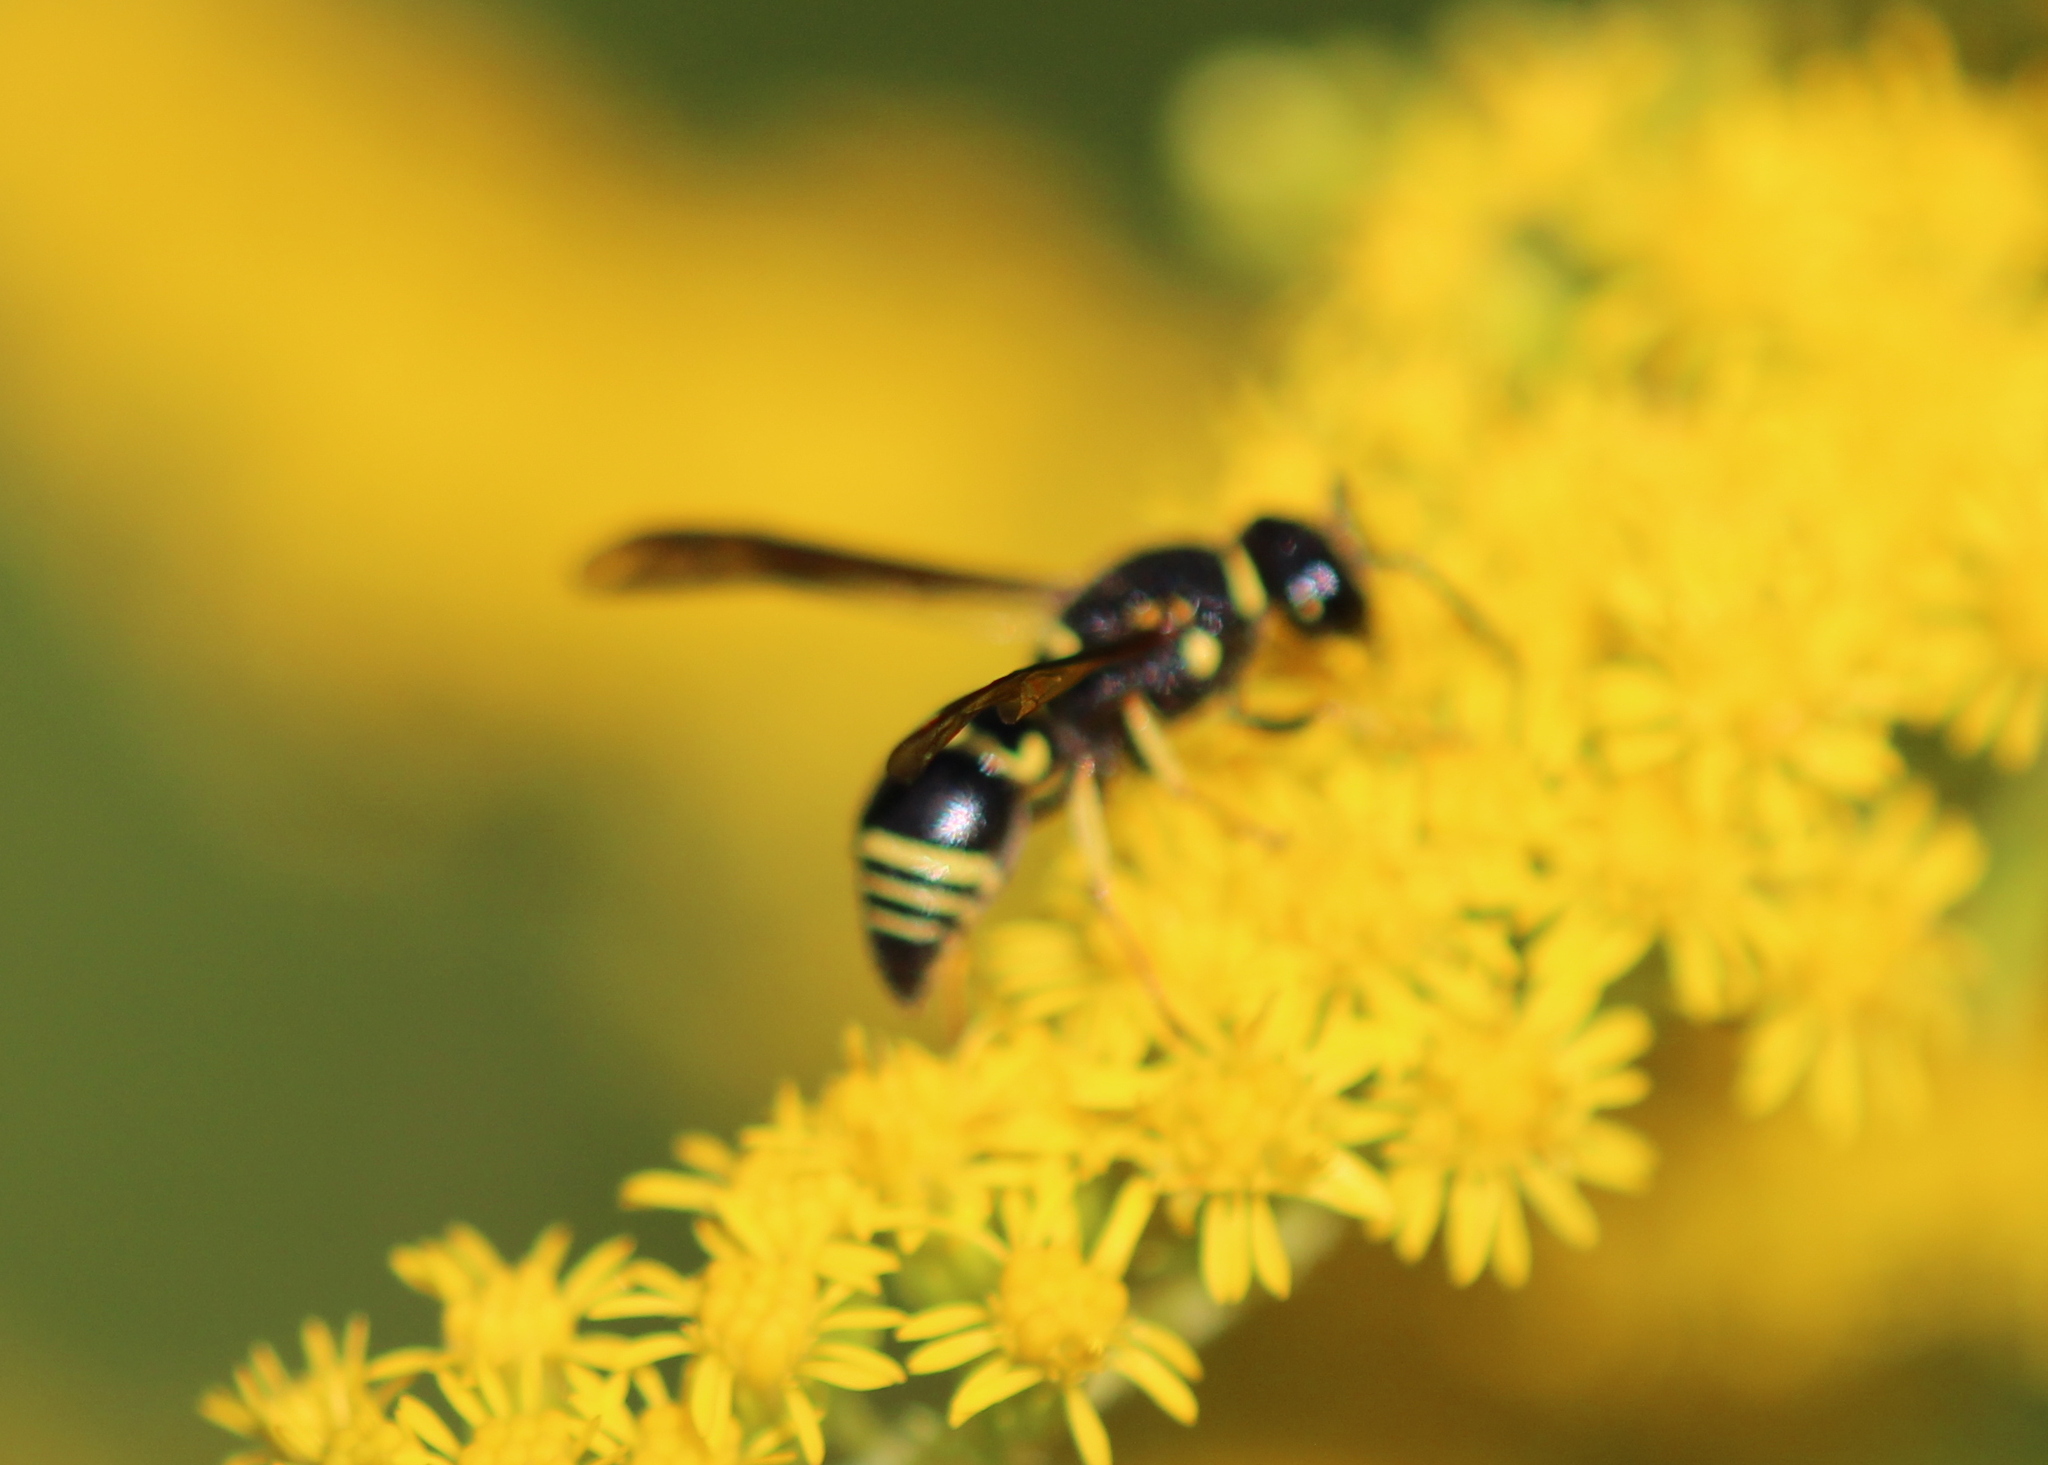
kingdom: Animalia
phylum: Arthropoda
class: Insecta
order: Hymenoptera
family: Eumenidae
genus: Euodynerus
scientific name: Euodynerus foraminatus
